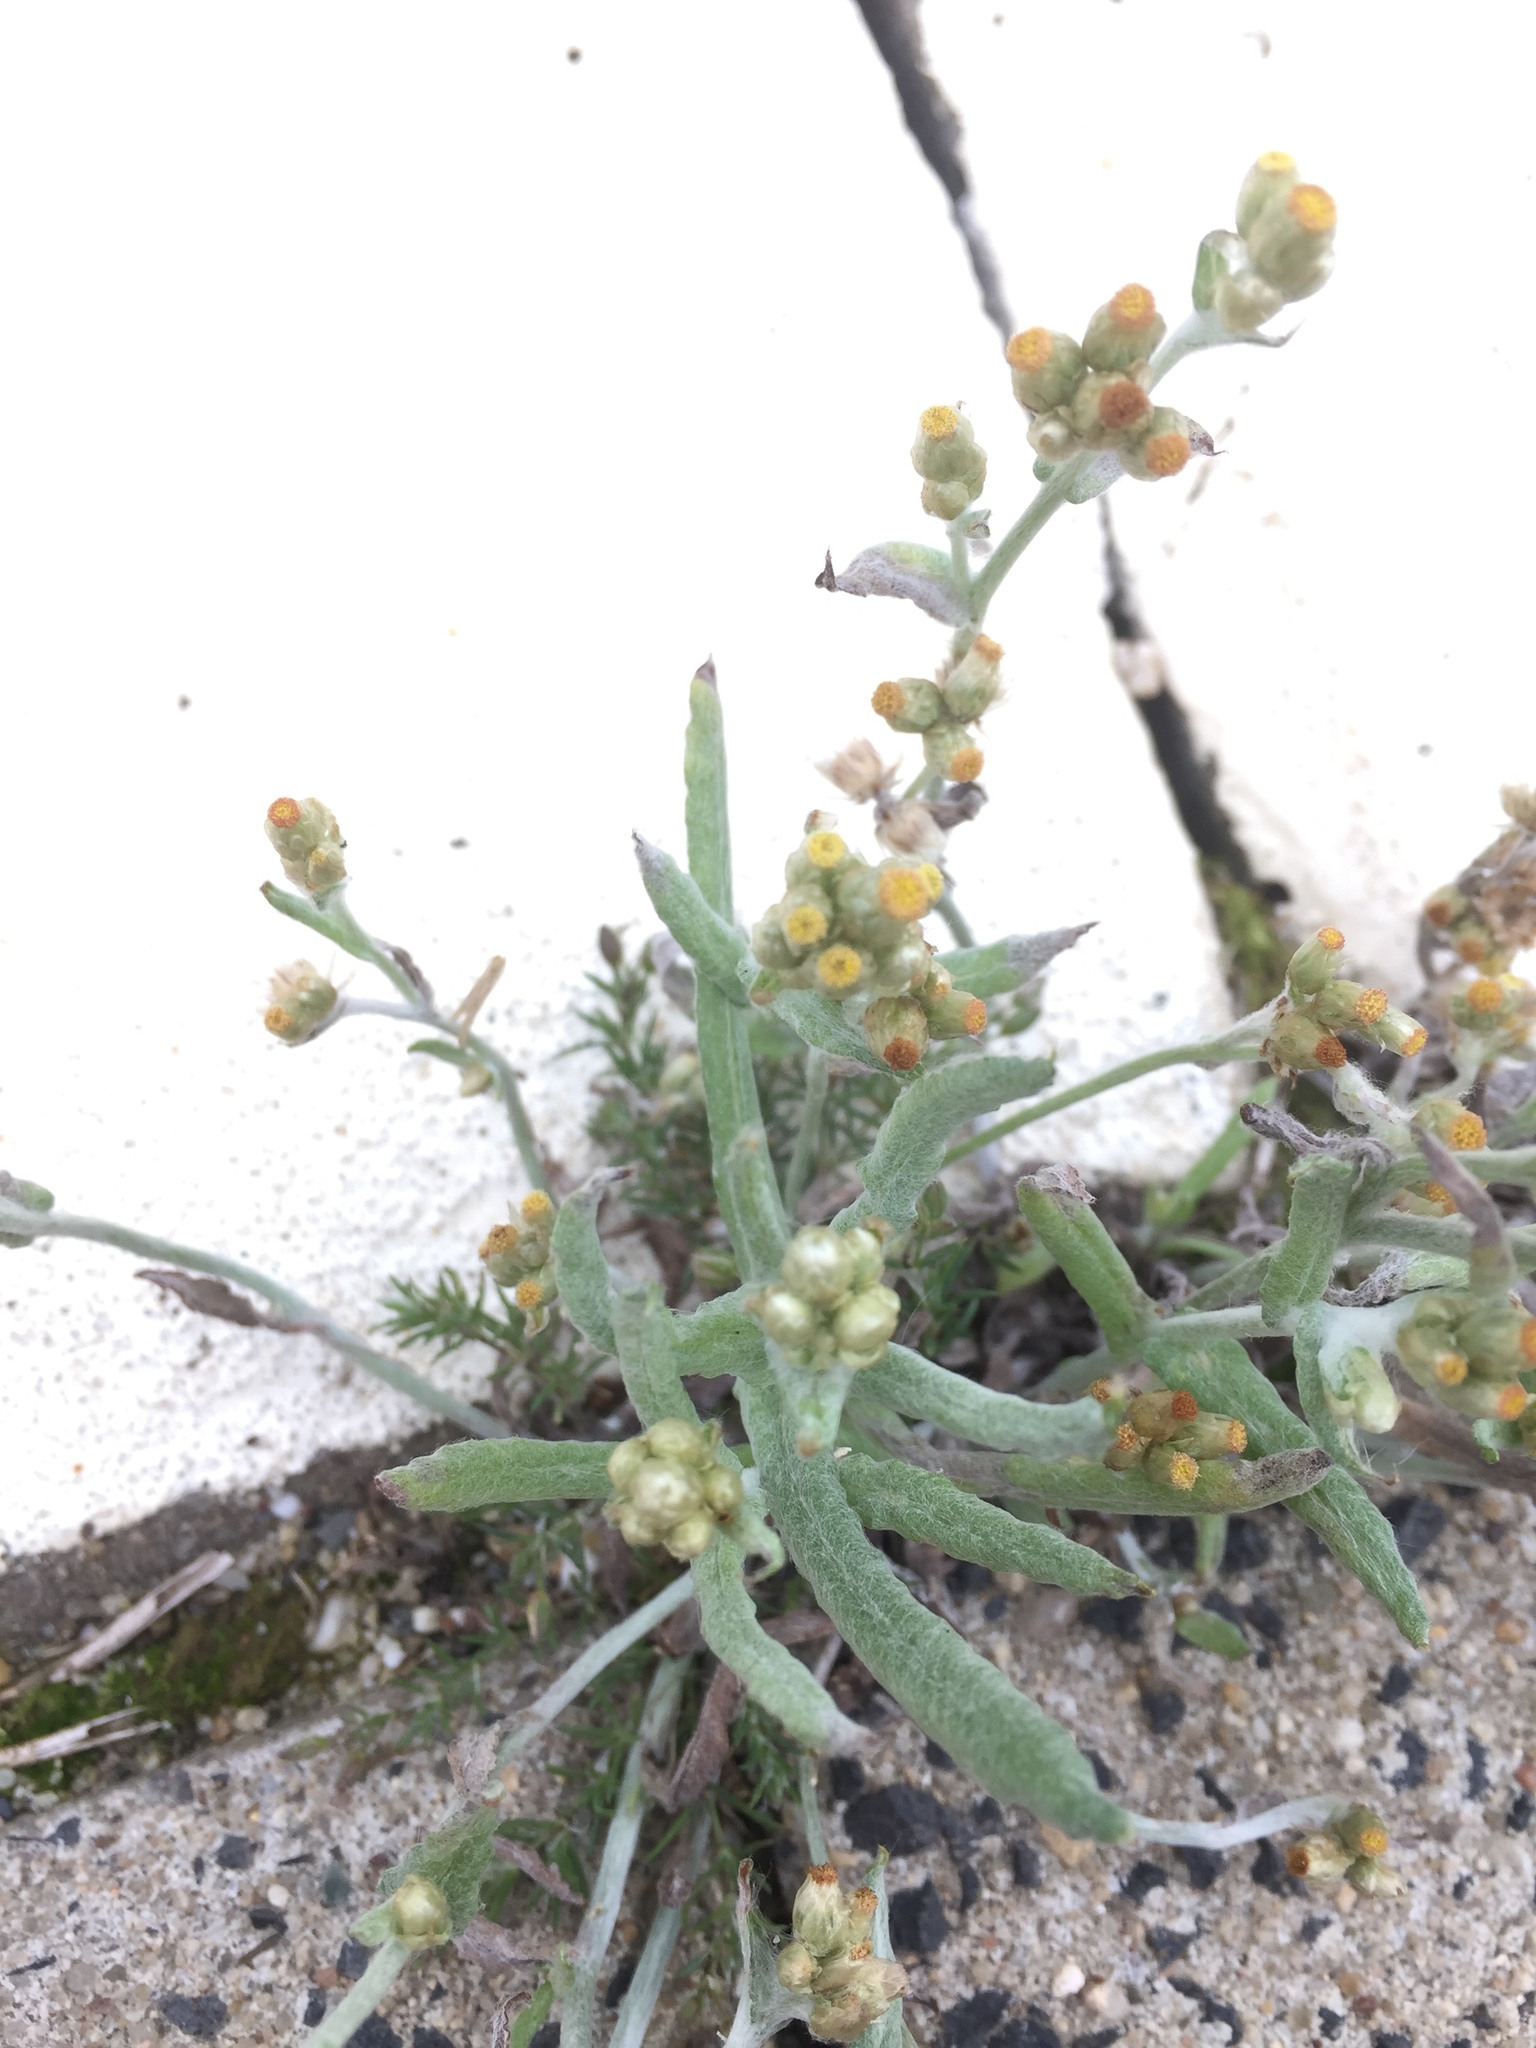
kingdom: Plantae
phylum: Tracheophyta
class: Magnoliopsida
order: Asterales
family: Asteraceae
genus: Helichrysum
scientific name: Helichrysum luteoalbum
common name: Daisy
